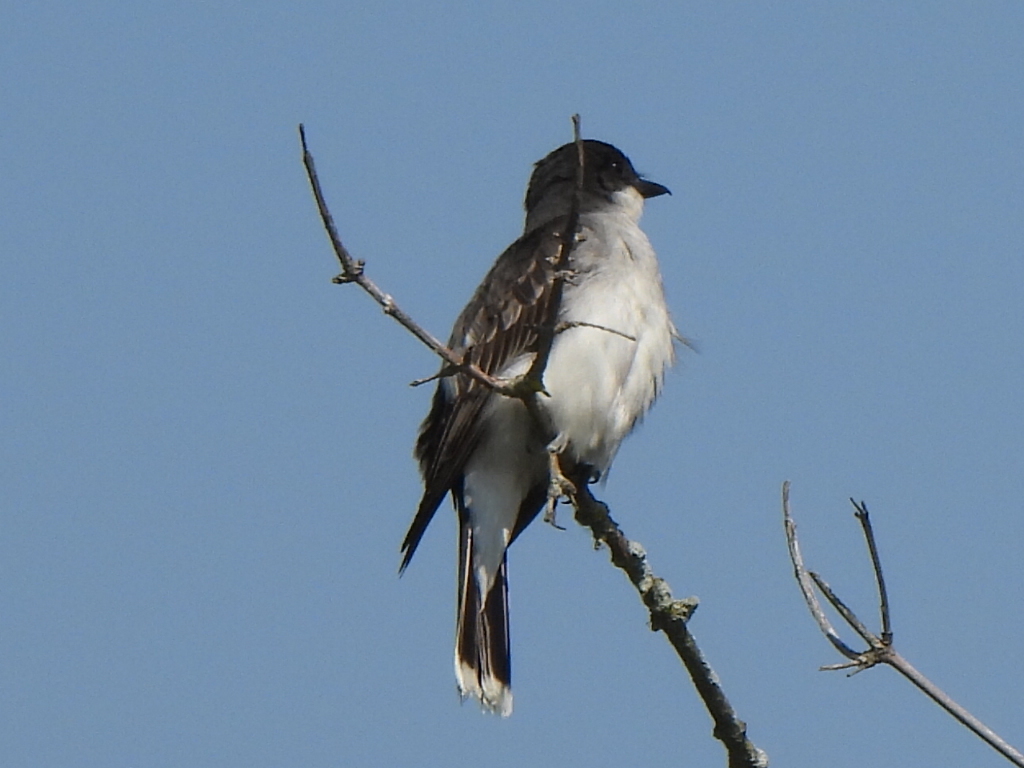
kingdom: Animalia
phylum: Chordata
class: Aves
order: Passeriformes
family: Tyrannidae
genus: Tyrannus
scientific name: Tyrannus tyrannus
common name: Eastern kingbird
